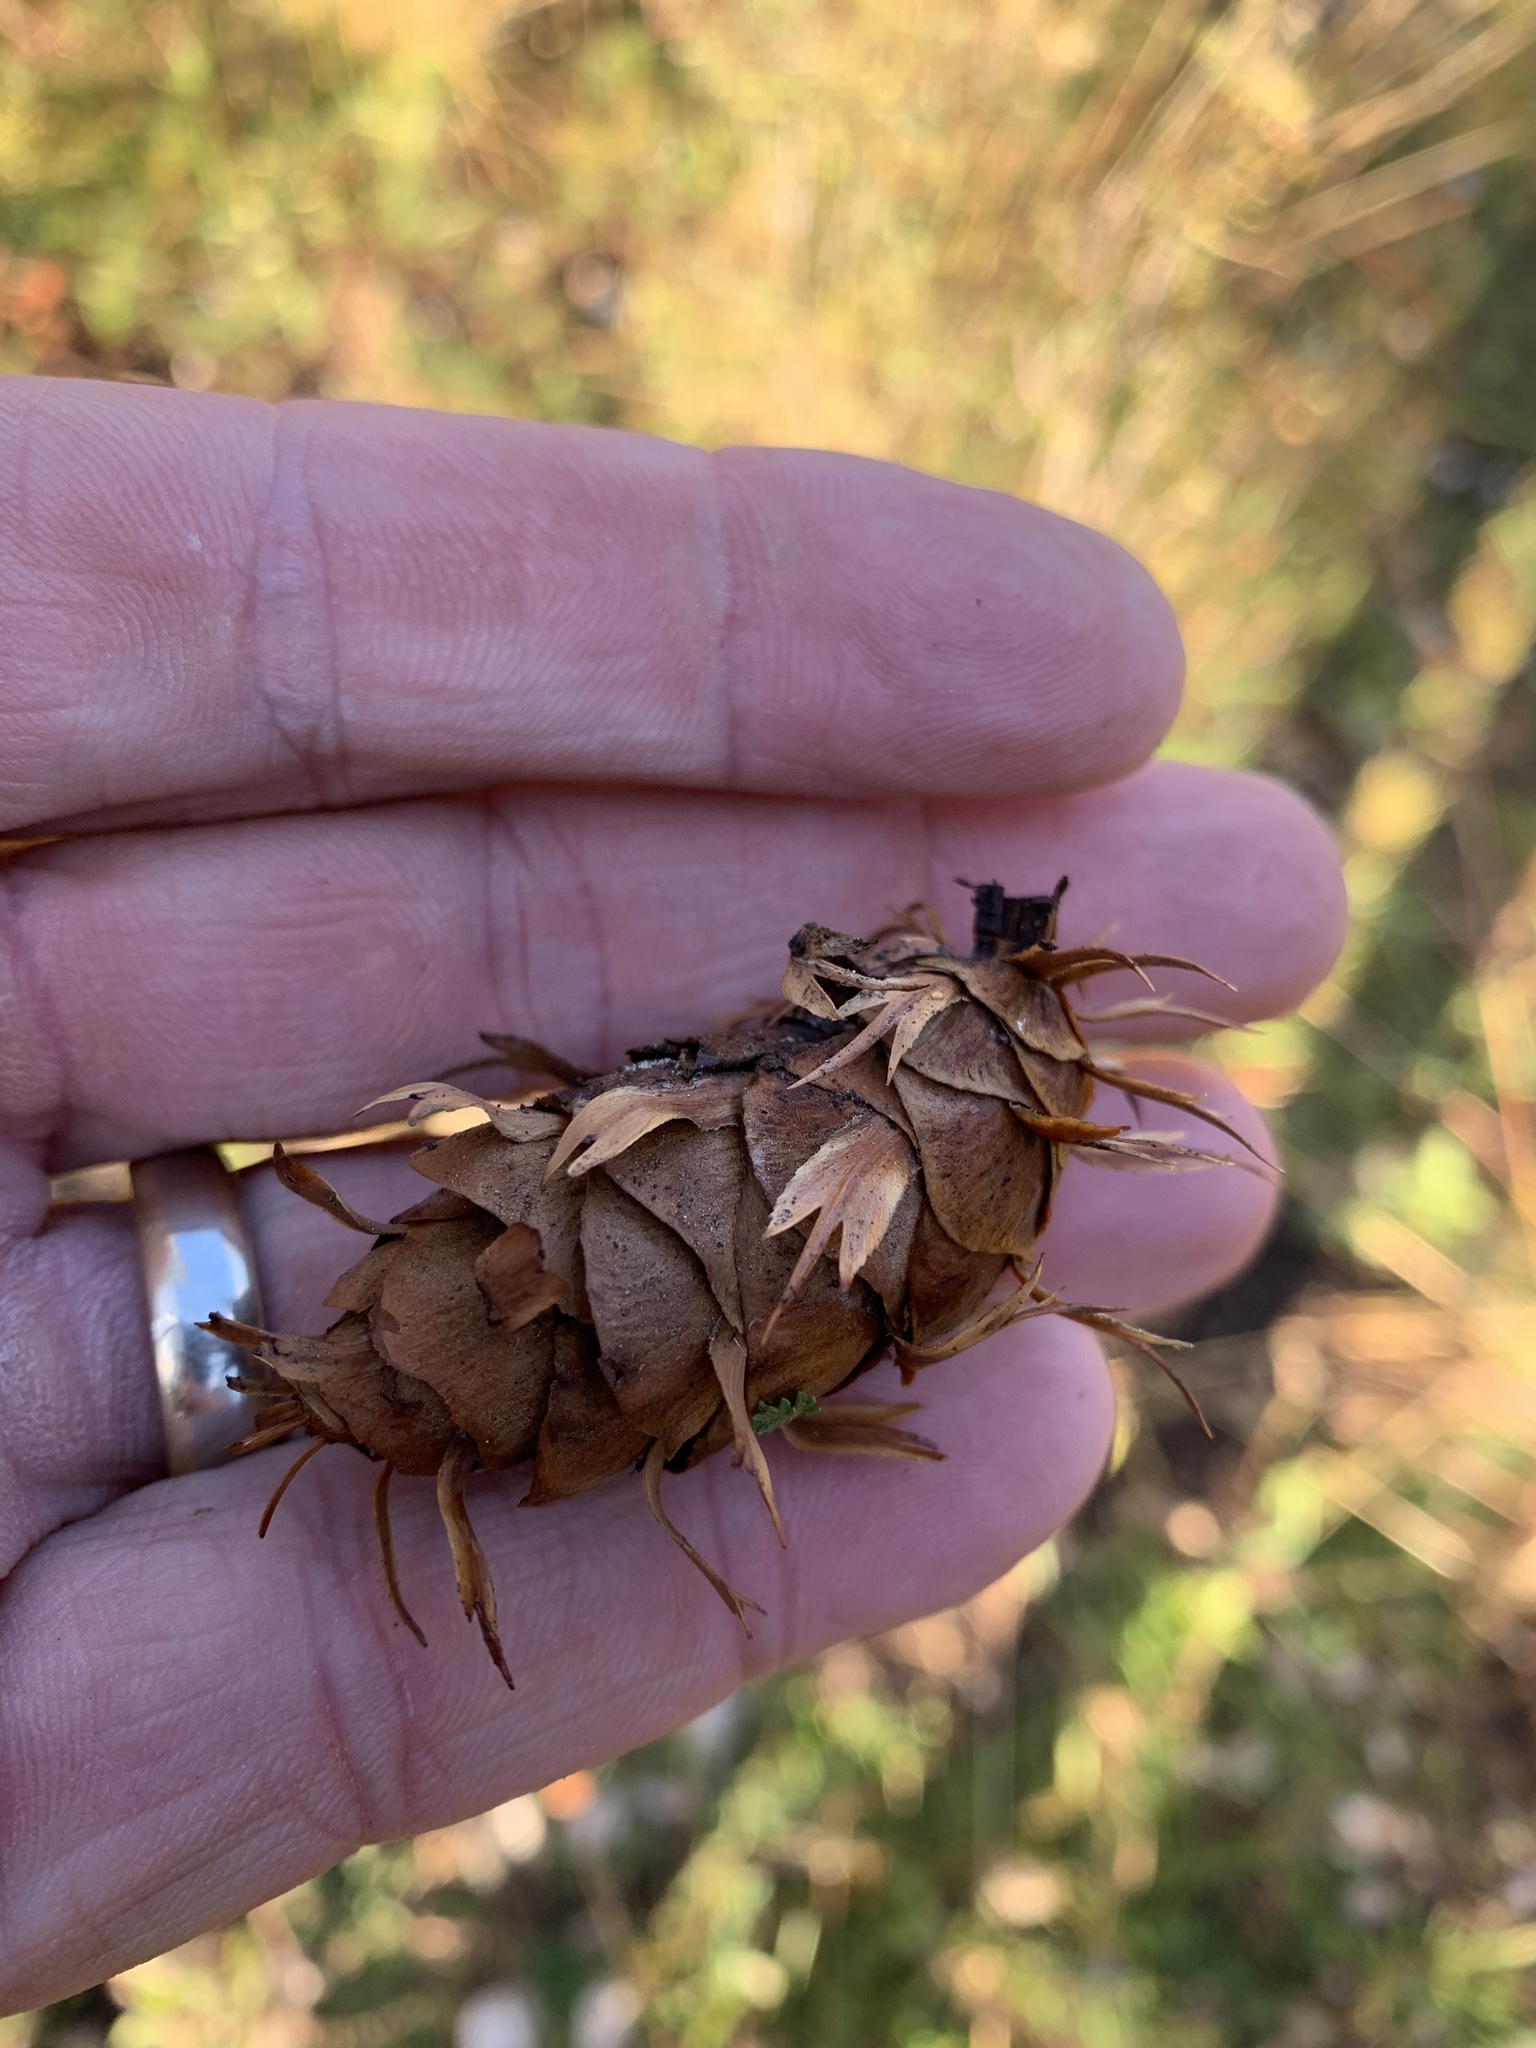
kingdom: Plantae
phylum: Tracheophyta
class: Pinopsida
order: Pinales
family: Pinaceae
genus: Pseudotsuga
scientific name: Pseudotsuga menziesii
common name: Douglas fir
